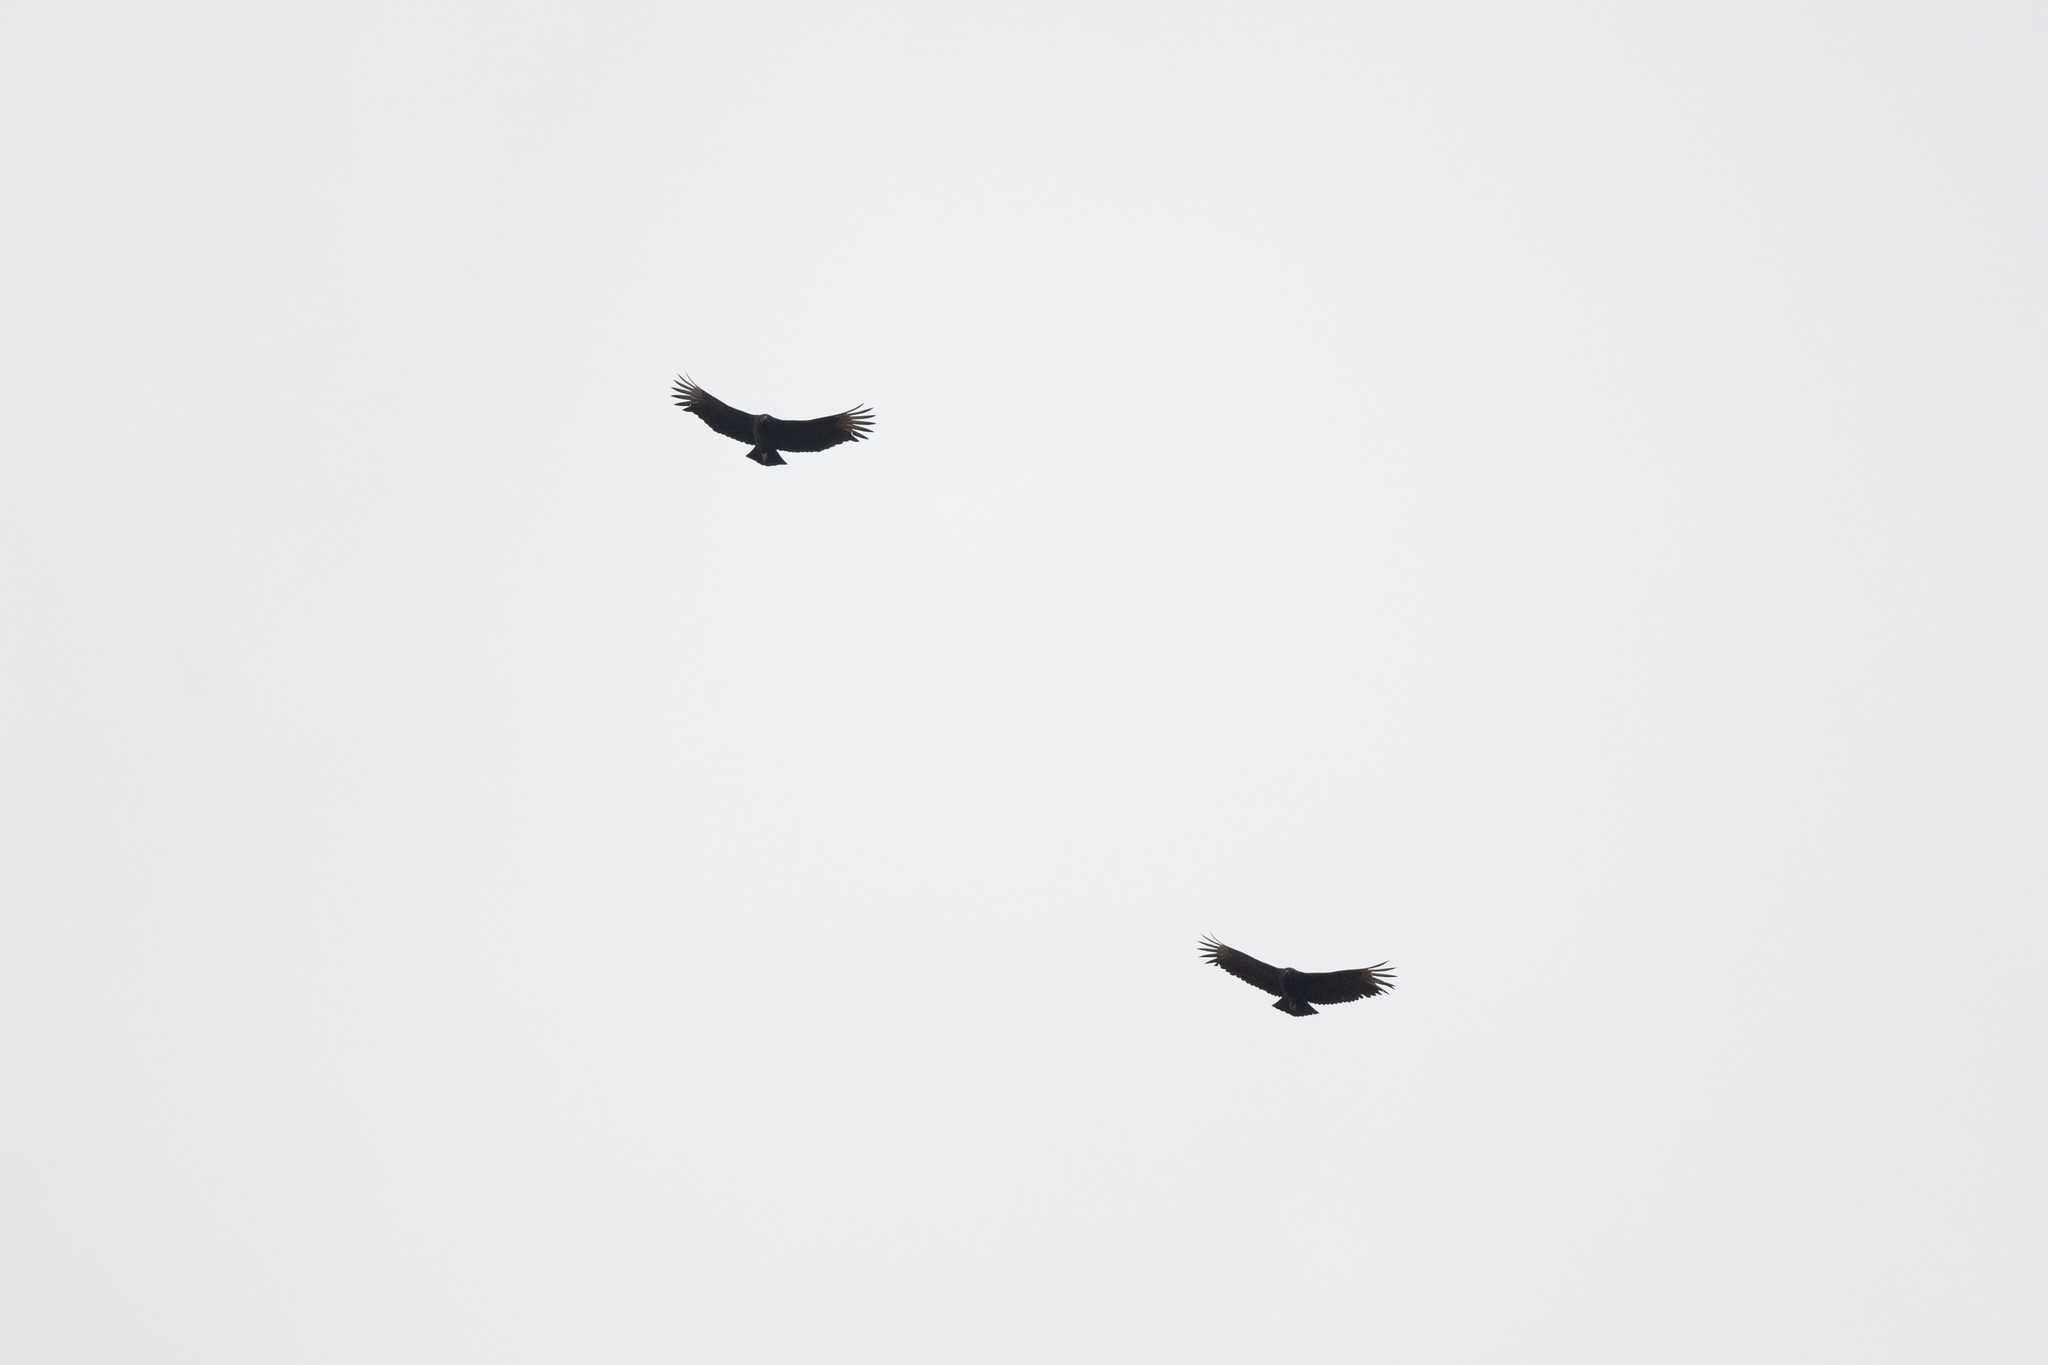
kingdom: Animalia
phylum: Chordata
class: Aves
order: Accipitriformes
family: Cathartidae
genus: Coragyps
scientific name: Coragyps atratus
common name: Black vulture
